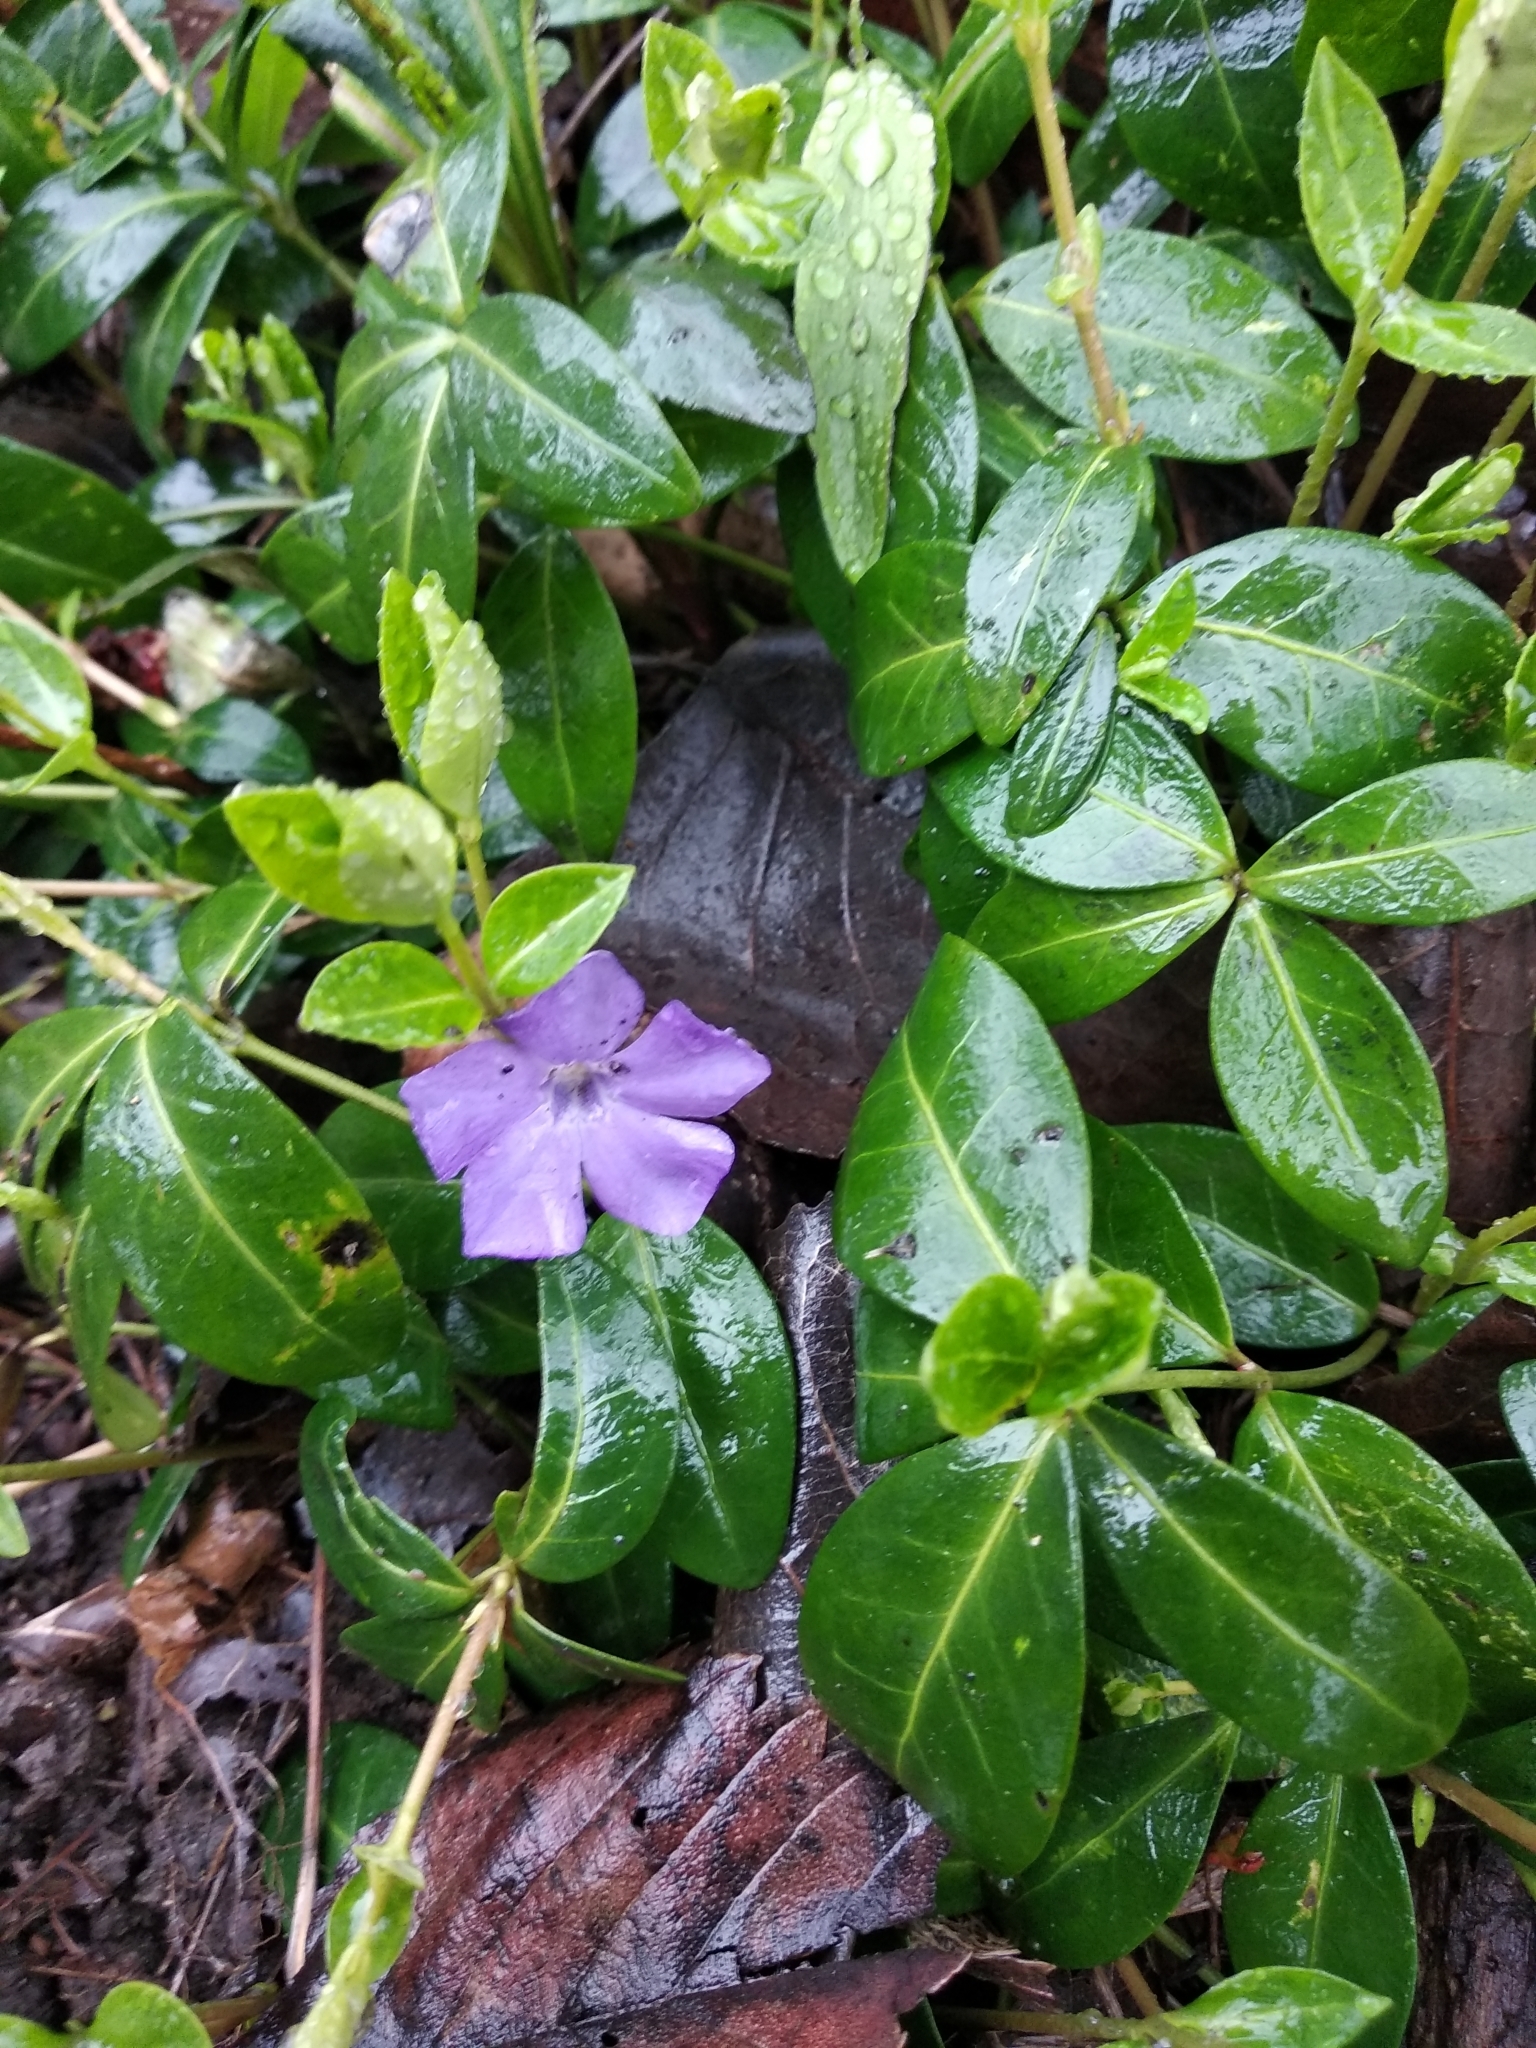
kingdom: Plantae
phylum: Tracheophyta
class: Magnoliopsida
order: Gentianales
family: Apocynaceae
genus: Vinca
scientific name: Vinca minor
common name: Lesser periwinkle
